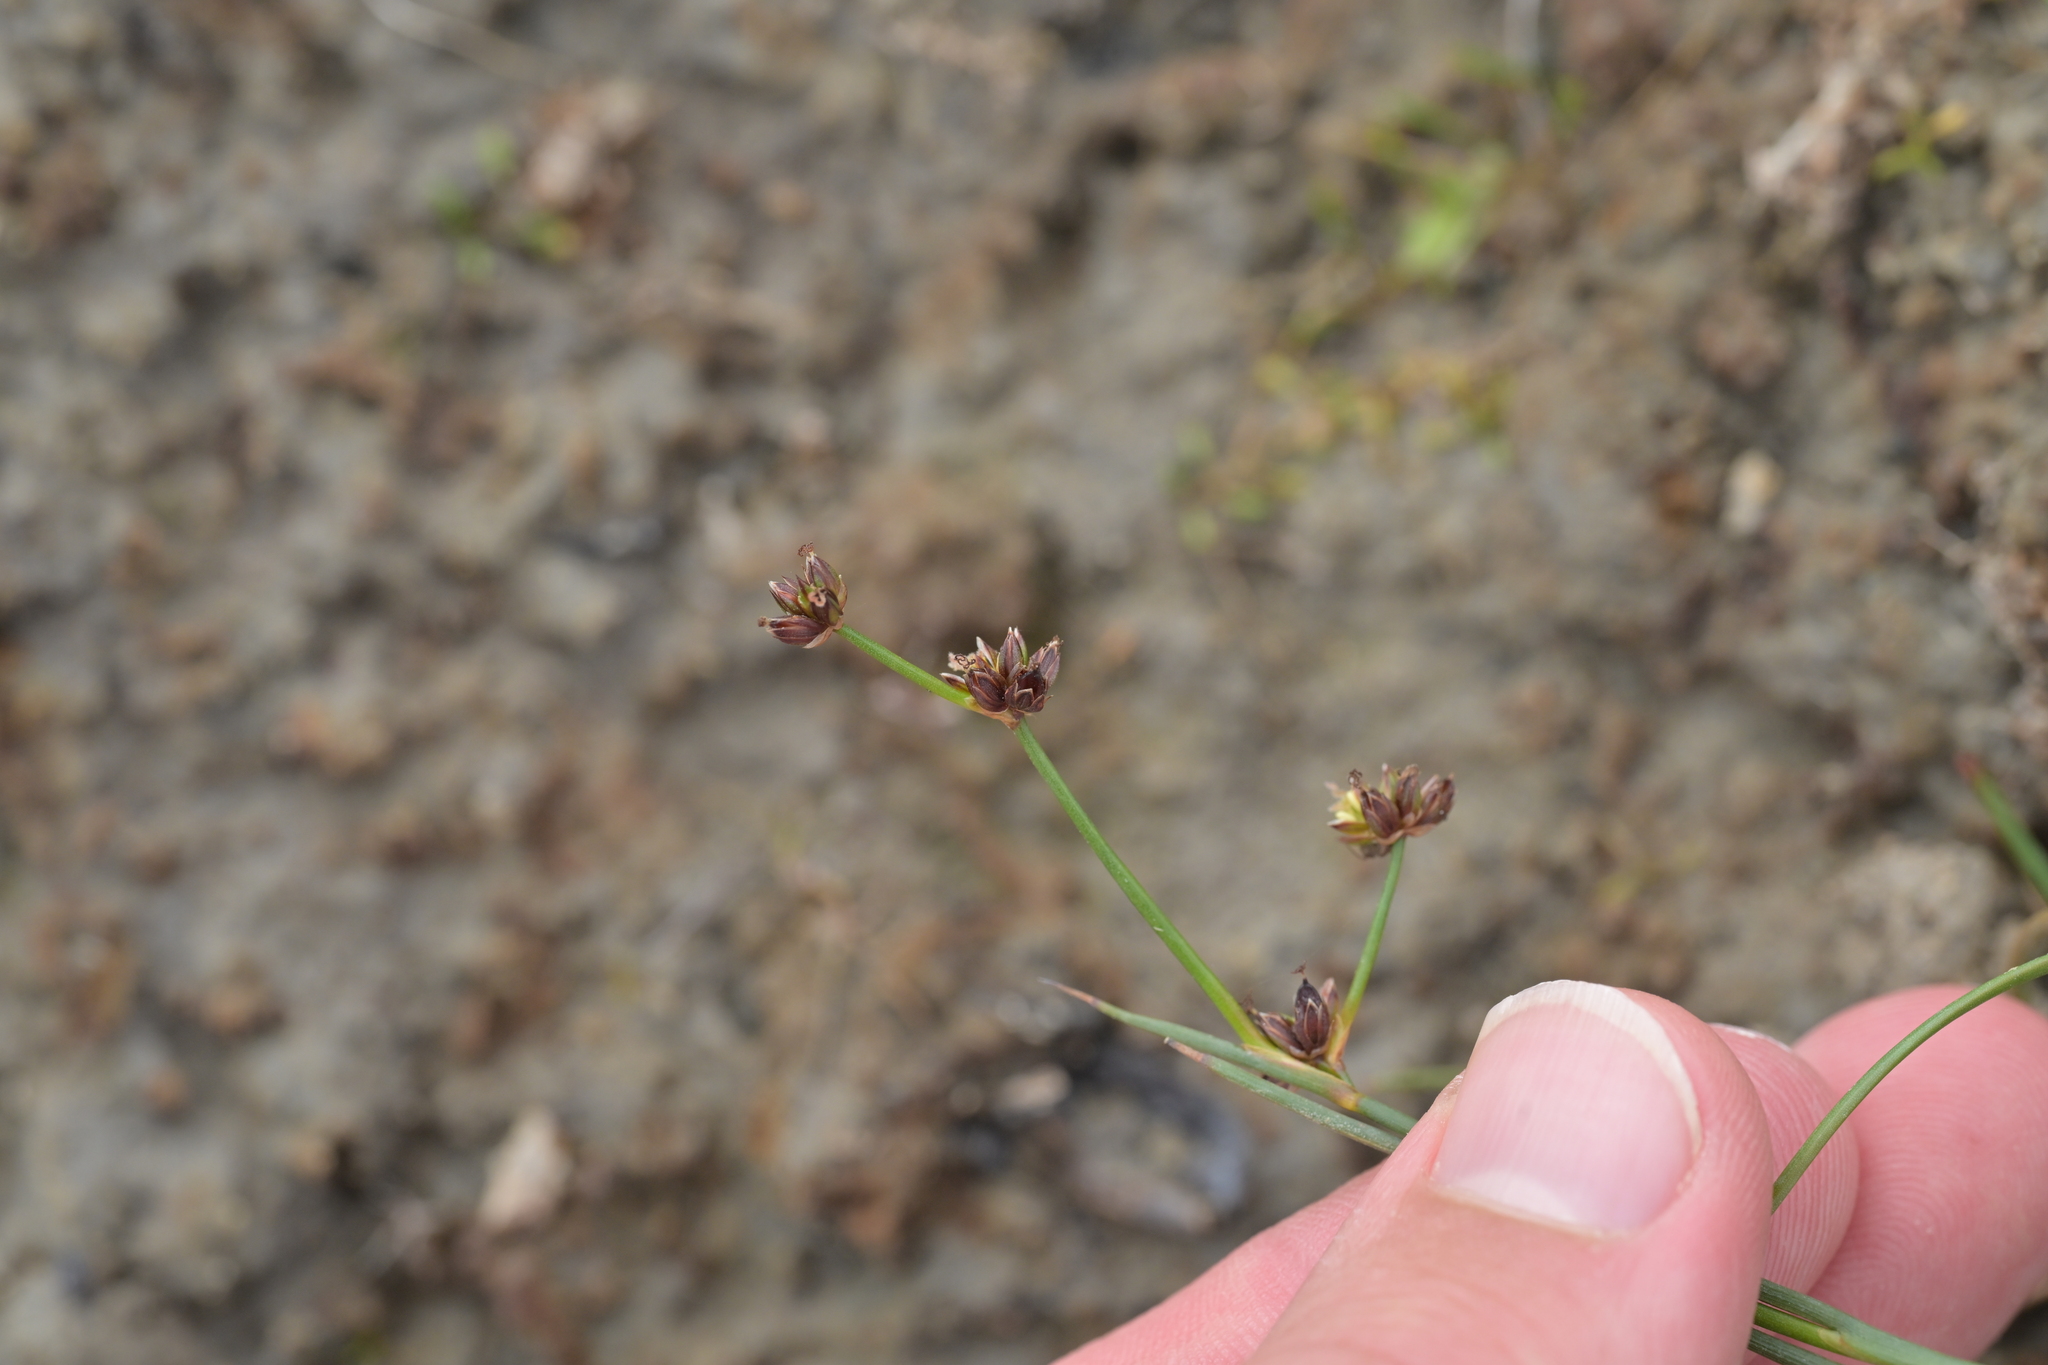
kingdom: Plantae
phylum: Tracheophyta
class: Liliopsida
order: Poales
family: Juncaceae
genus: Juncus
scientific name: Juncus articulatus
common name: Jointed rush
